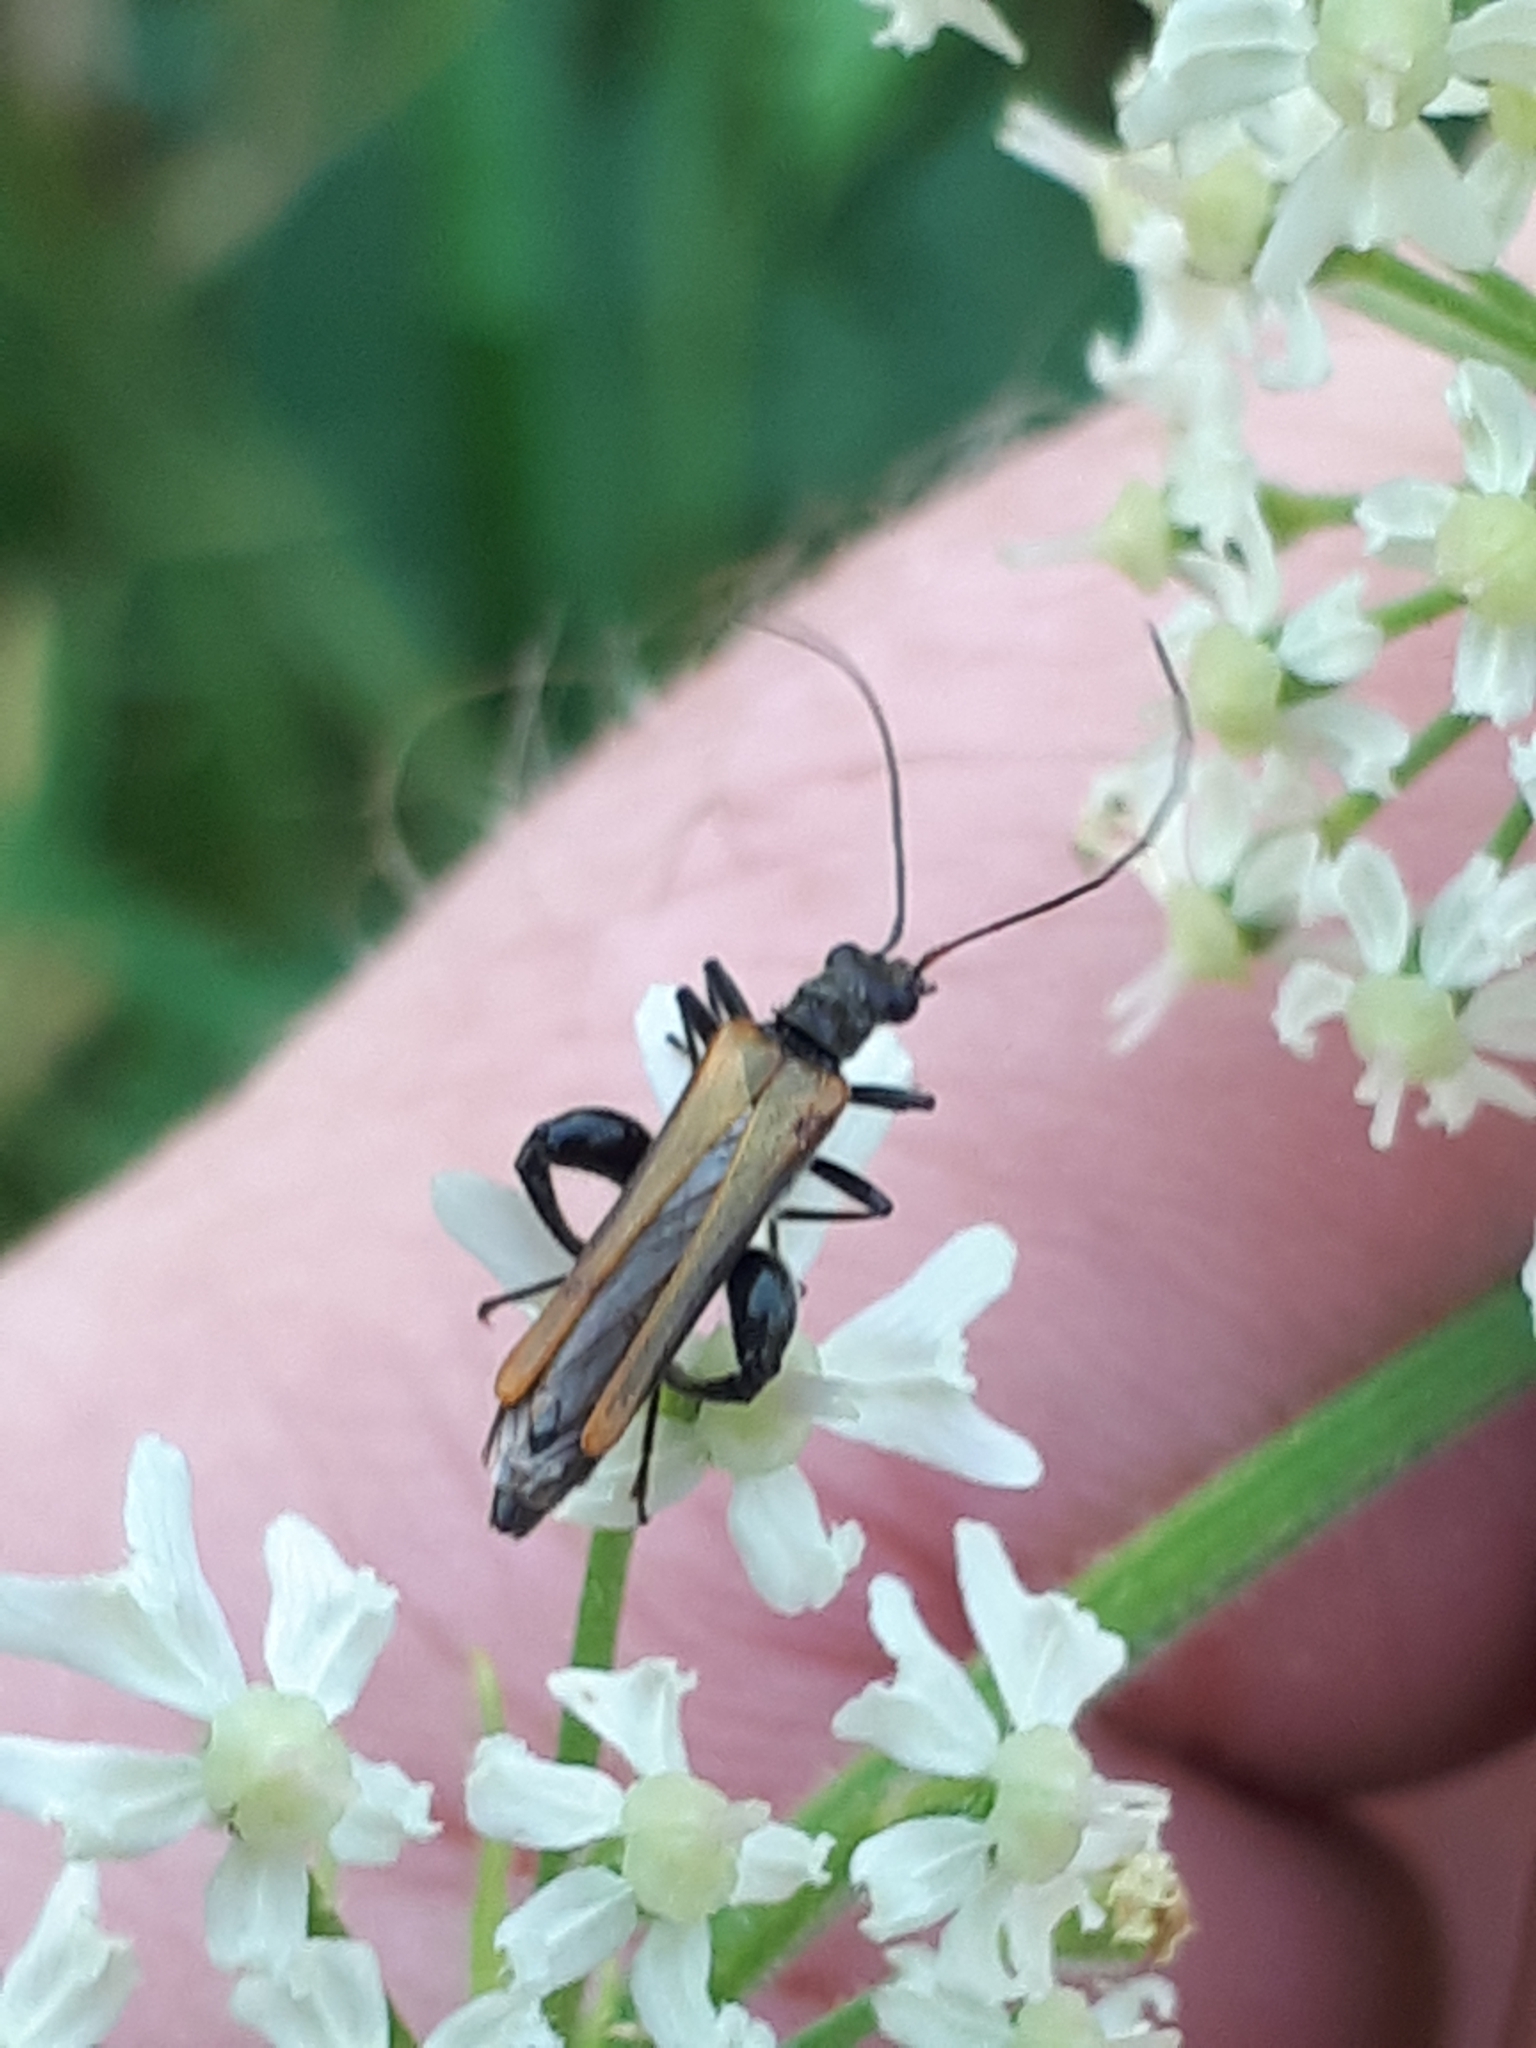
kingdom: Animalia
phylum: Arthropoda
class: Insecta
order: Coleoptera
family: Oedemeridae
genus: Oedemera
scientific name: Oedemera femorata
